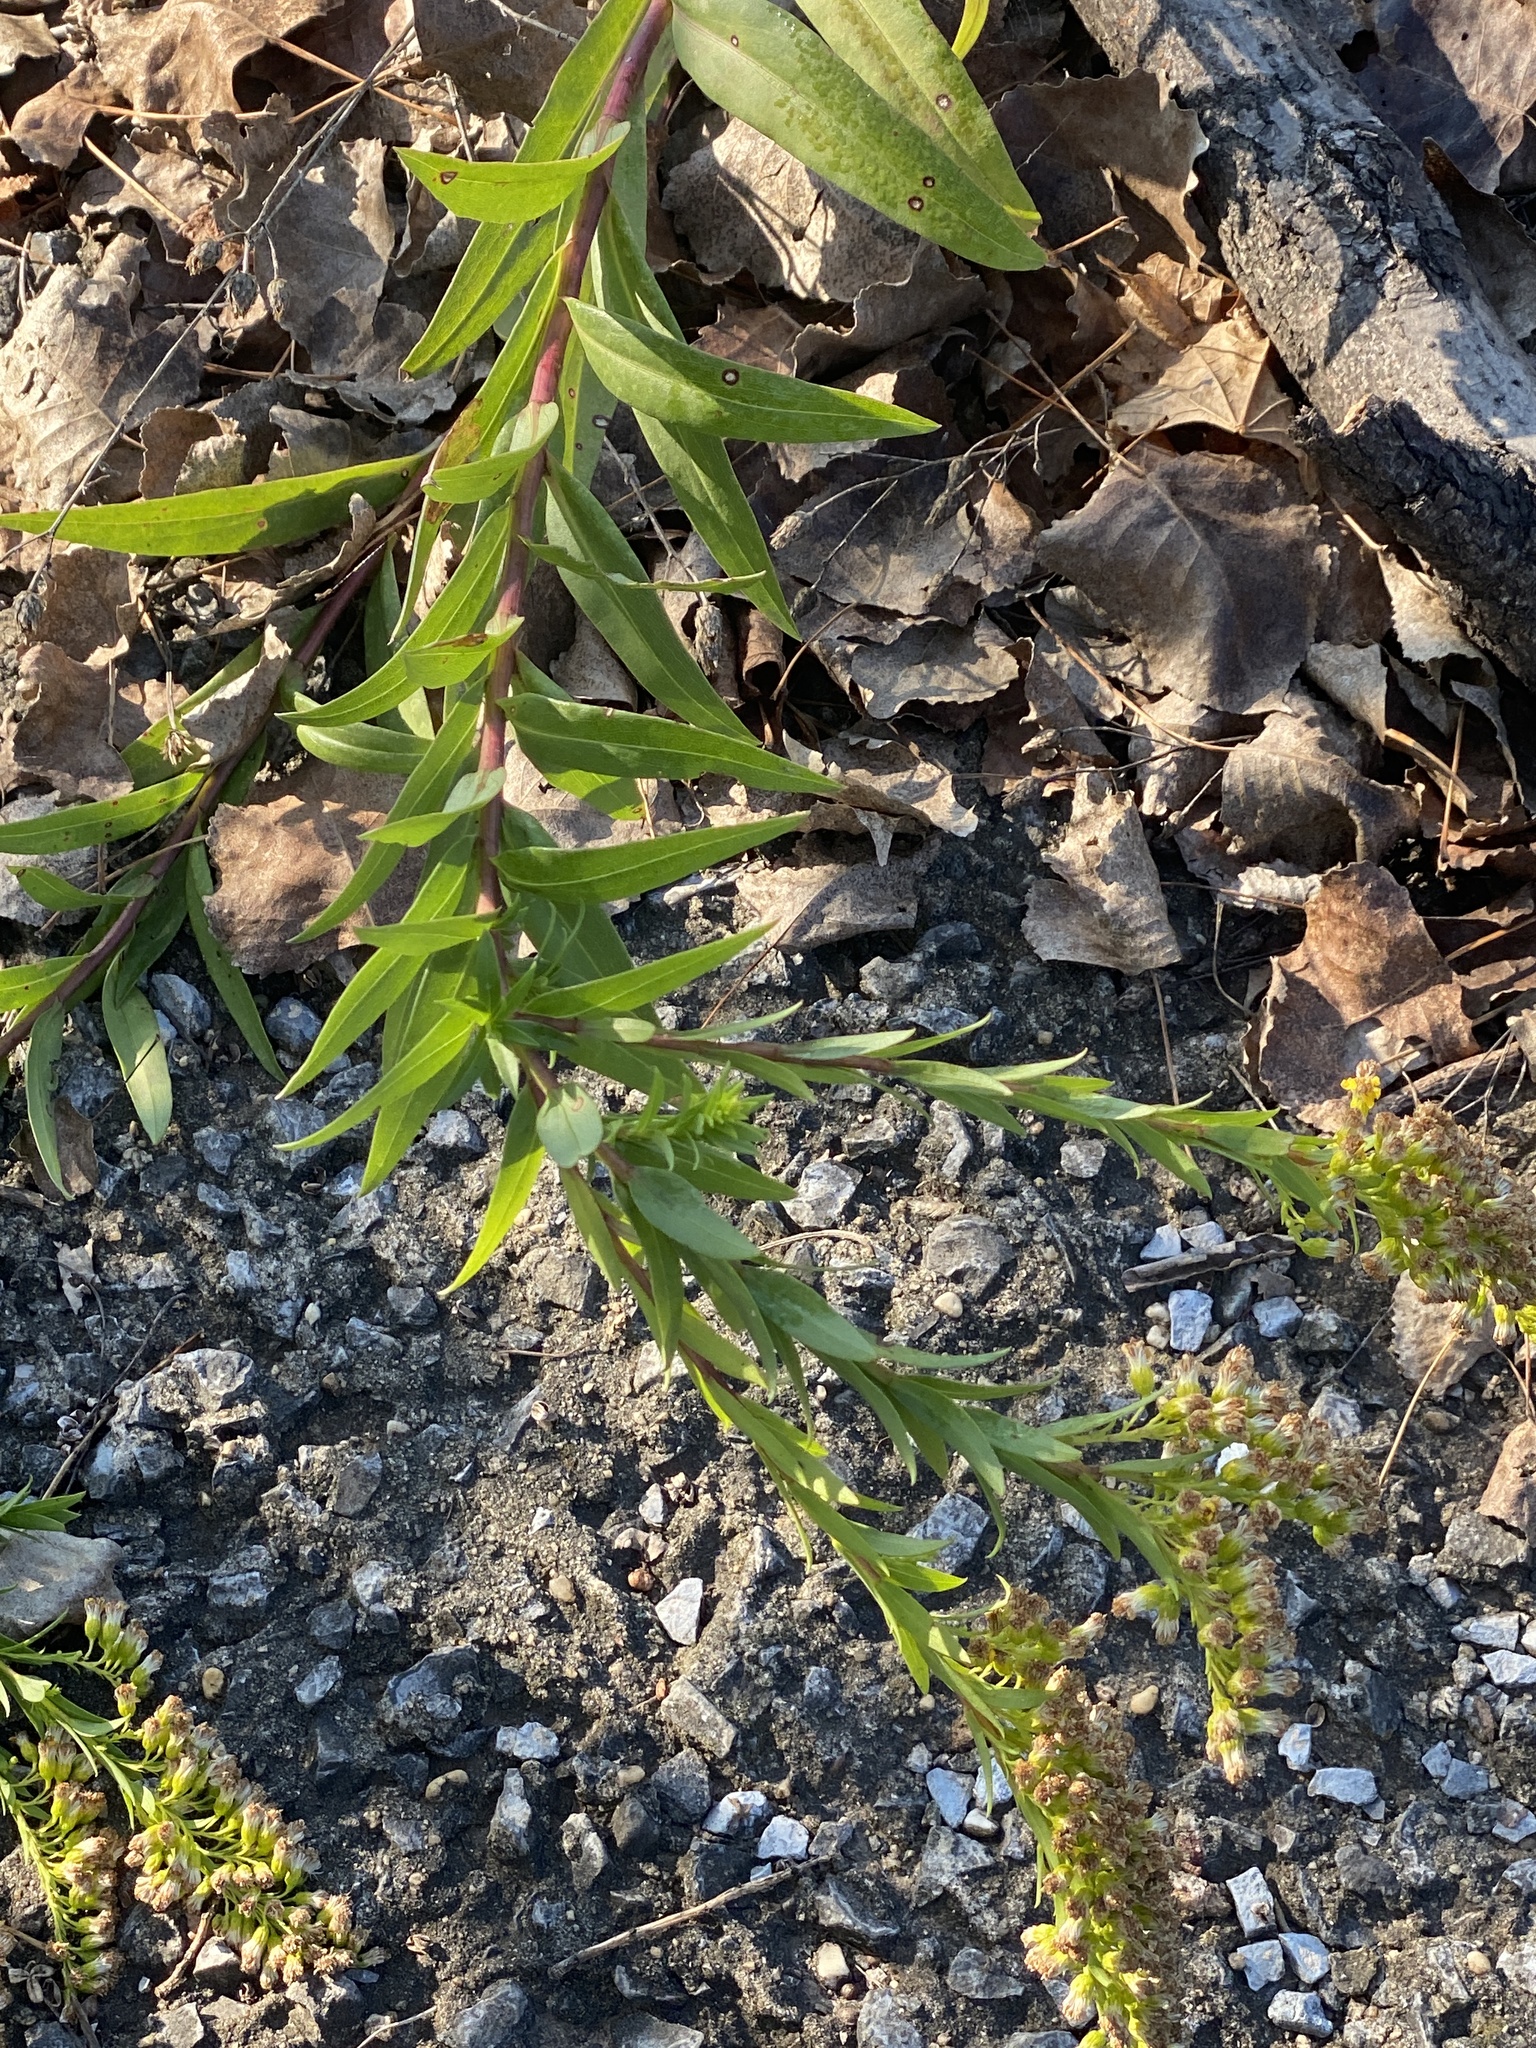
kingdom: Plantae
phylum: Tracheophyta
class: Magnoliopsida
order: Asterales
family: Asteraceae
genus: Solidago
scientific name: Solidago sempervirens
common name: Salt-marsh goldenrod
